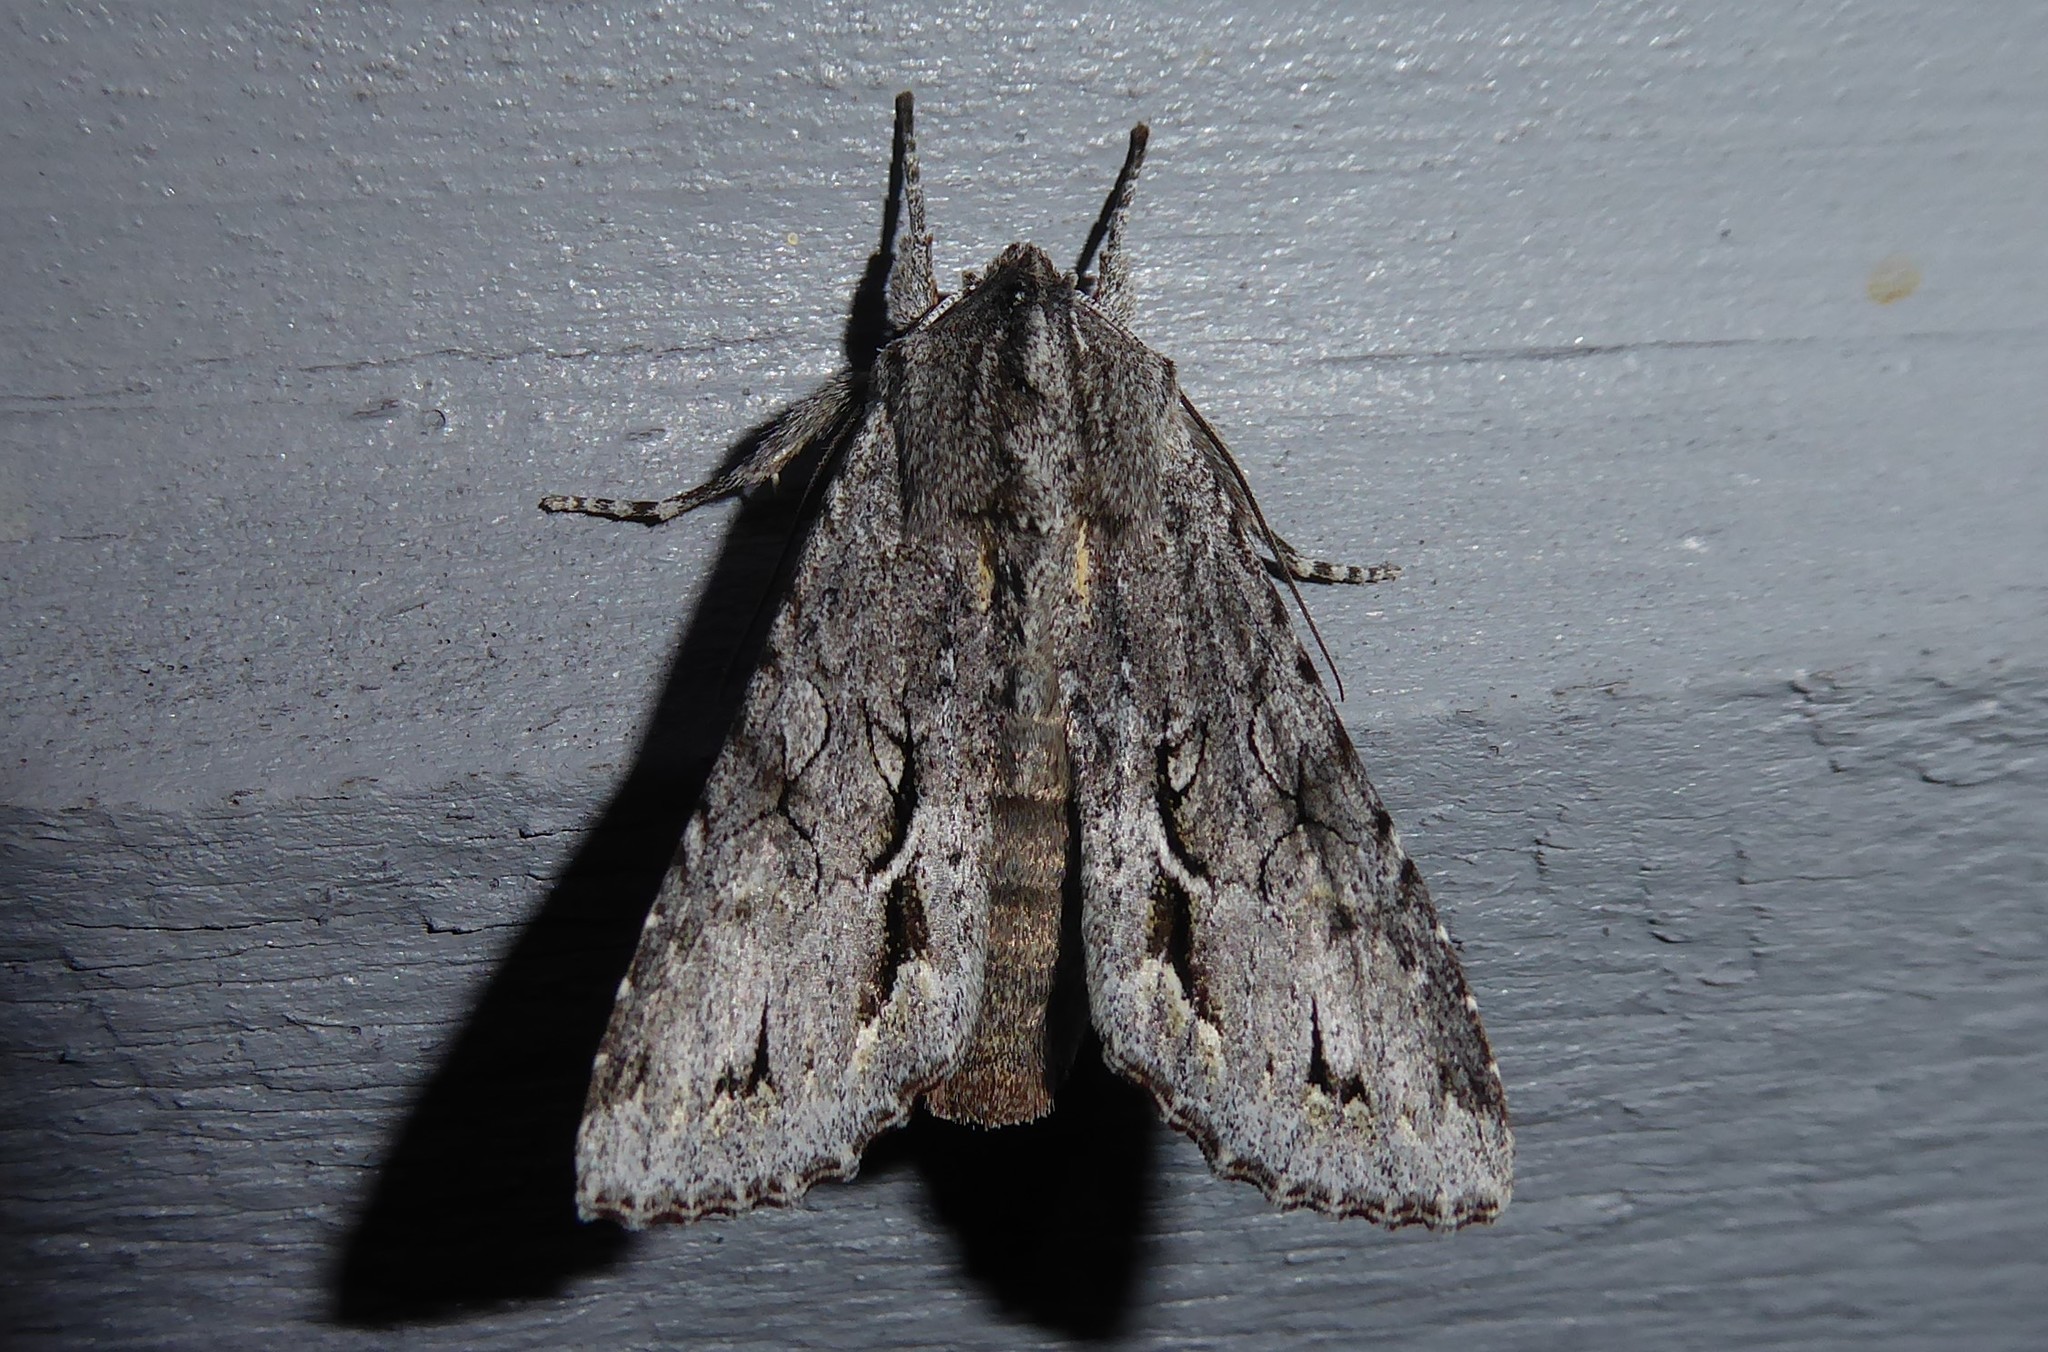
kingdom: Animalia
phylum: Arthropoda
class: Insecta
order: Lepidoptera
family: Noctuidae
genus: Ichneutica
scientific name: Ichneutica
